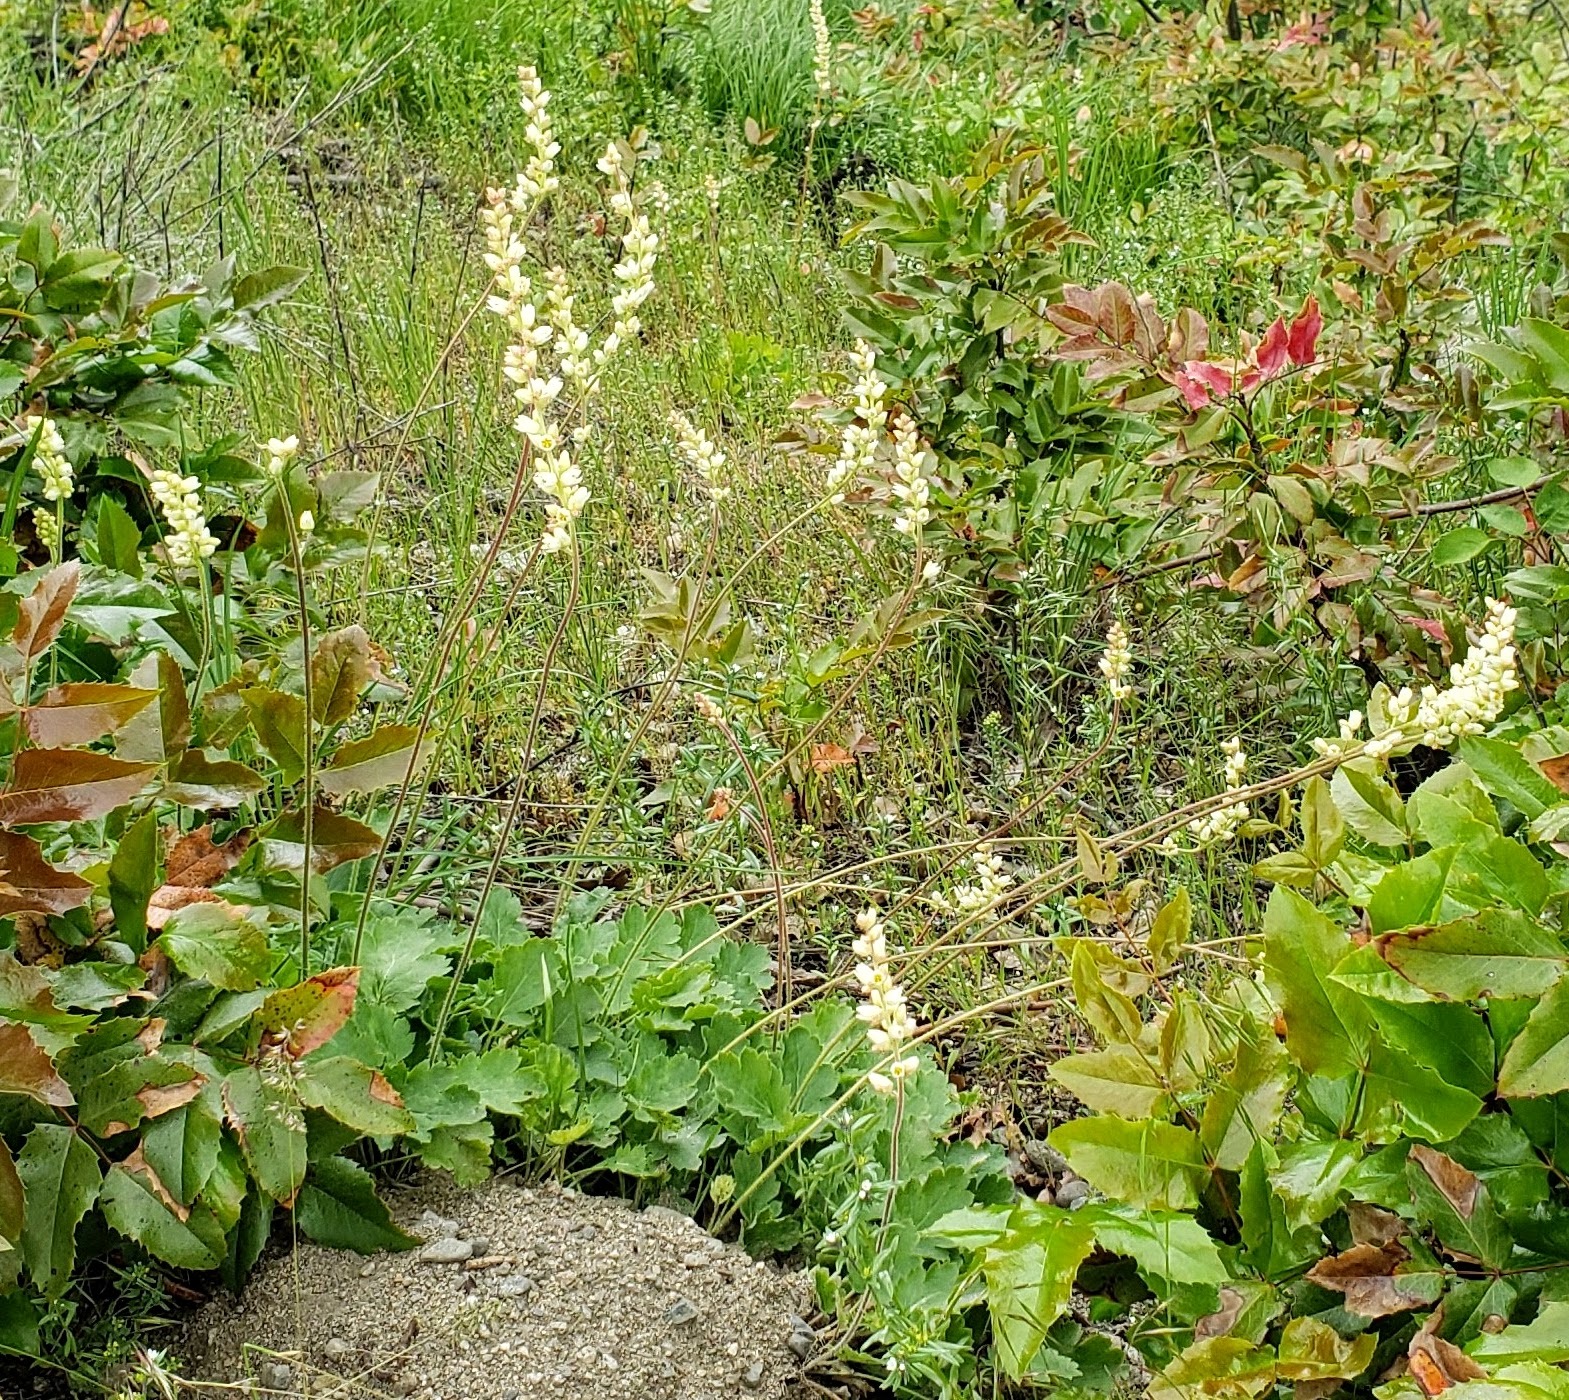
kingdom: Plantae
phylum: Tracheophyta
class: Magnoliopsida
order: Saxifragales
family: Saxifragaceae
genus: Heuchera
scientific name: Heuchera cylindrica
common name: Mat alumroot
